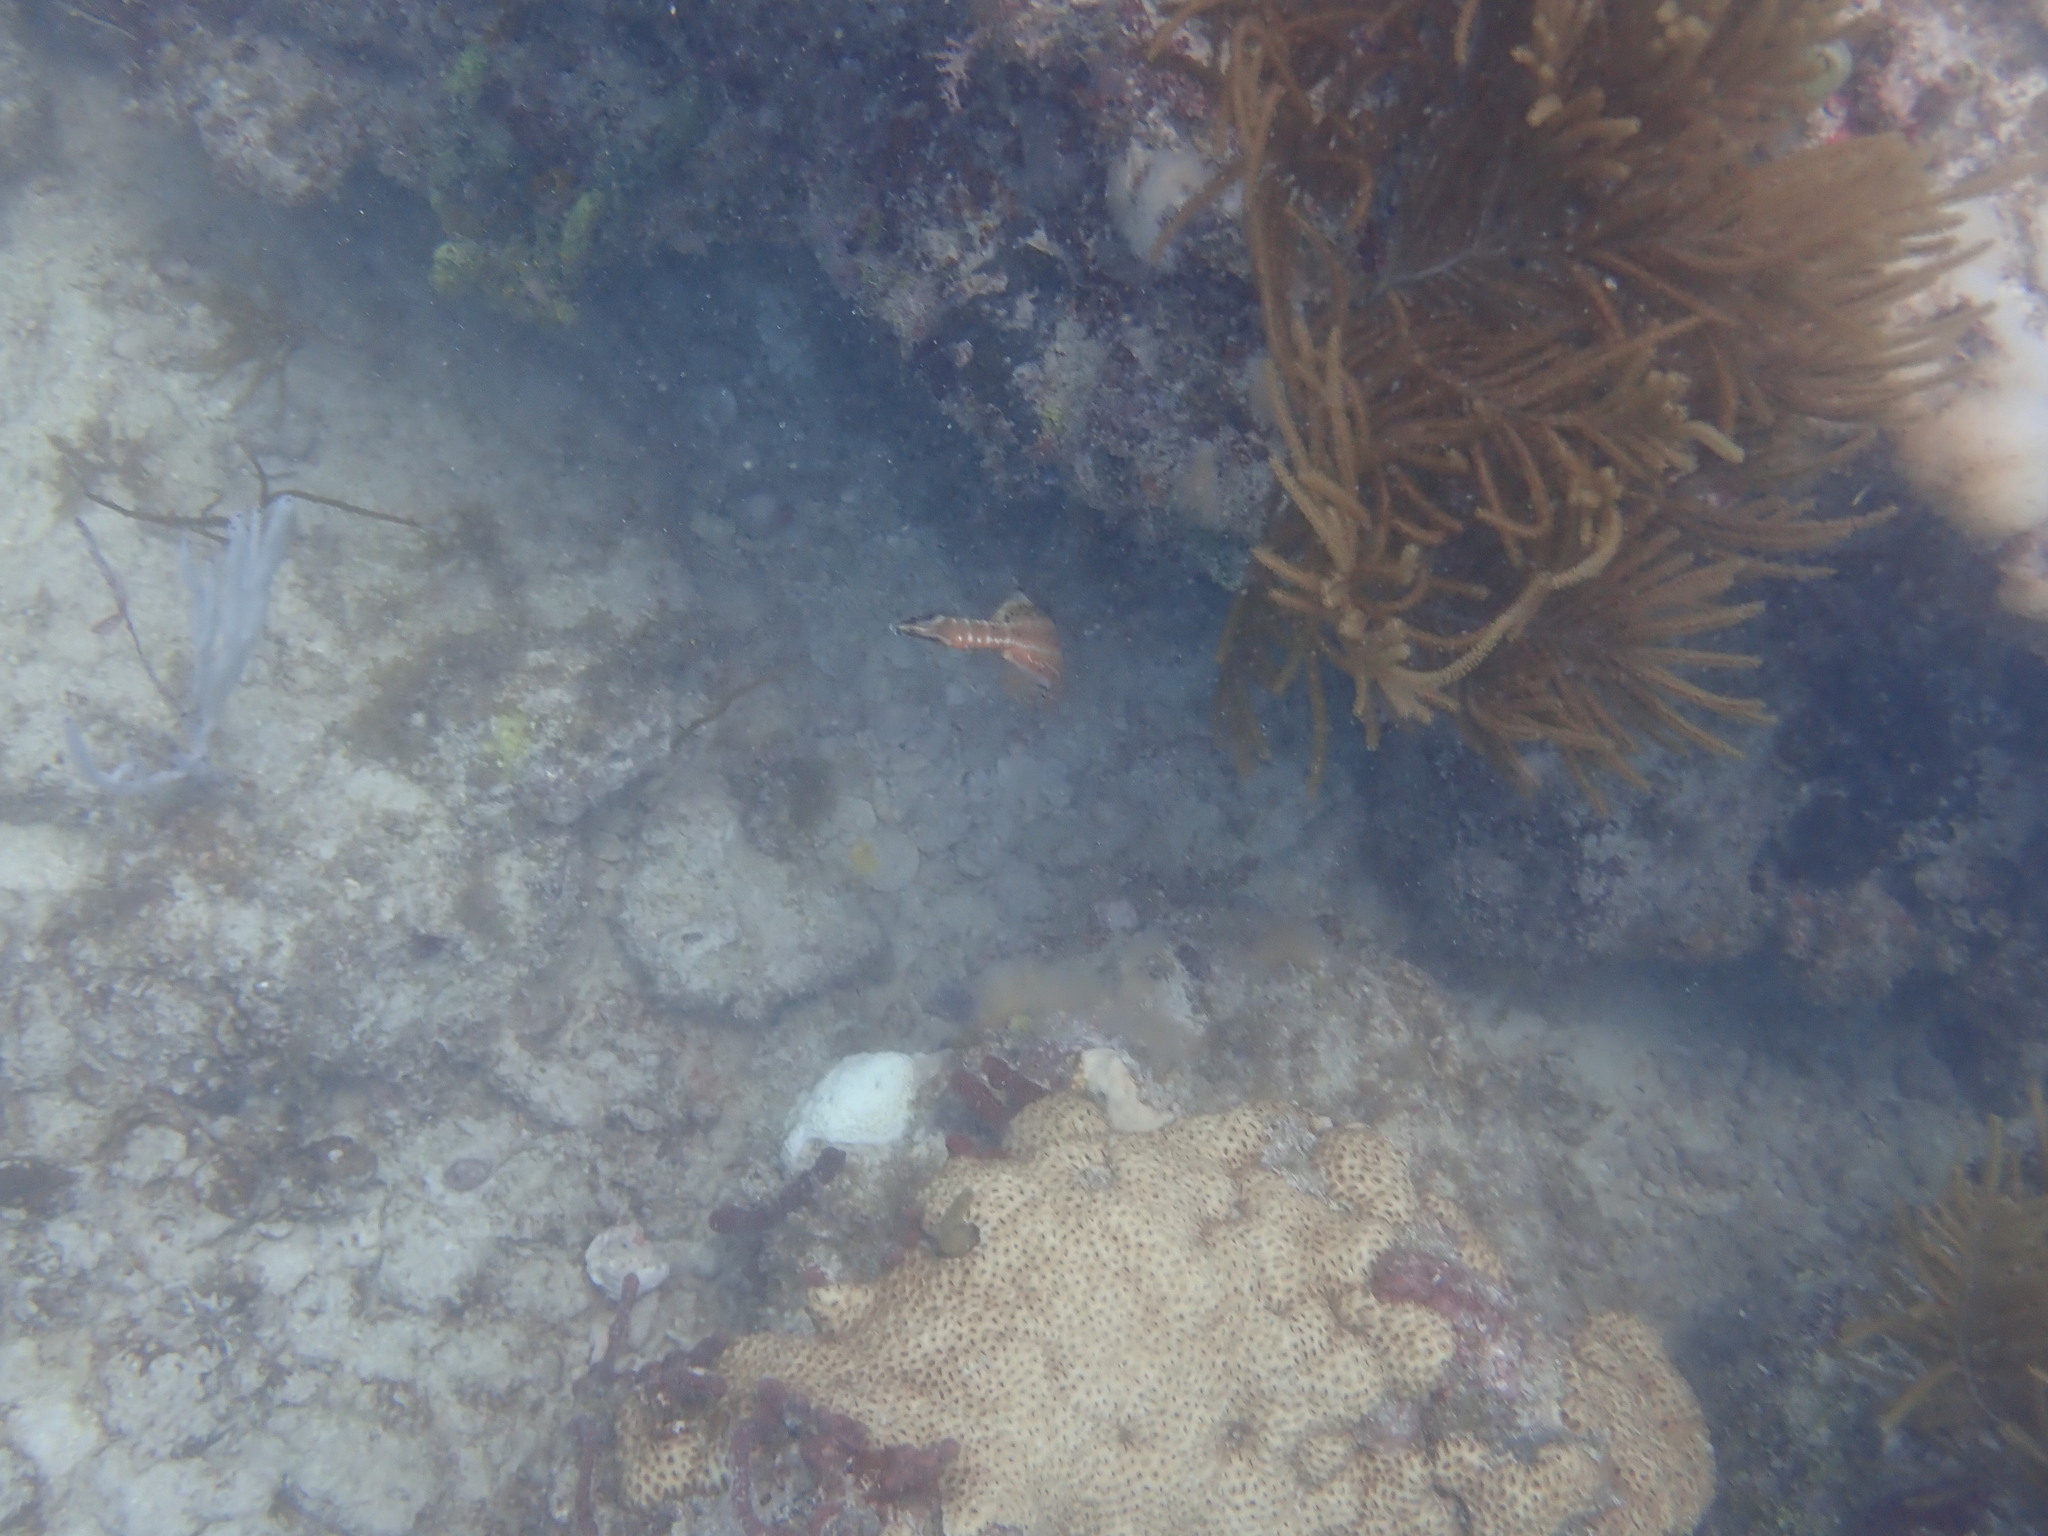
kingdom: Animalia
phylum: Chordata
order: Syngnathiformes
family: Aulostomidae
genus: Aulostomus
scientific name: Aulostomus maculatus
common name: West atlantic trumpetfish
